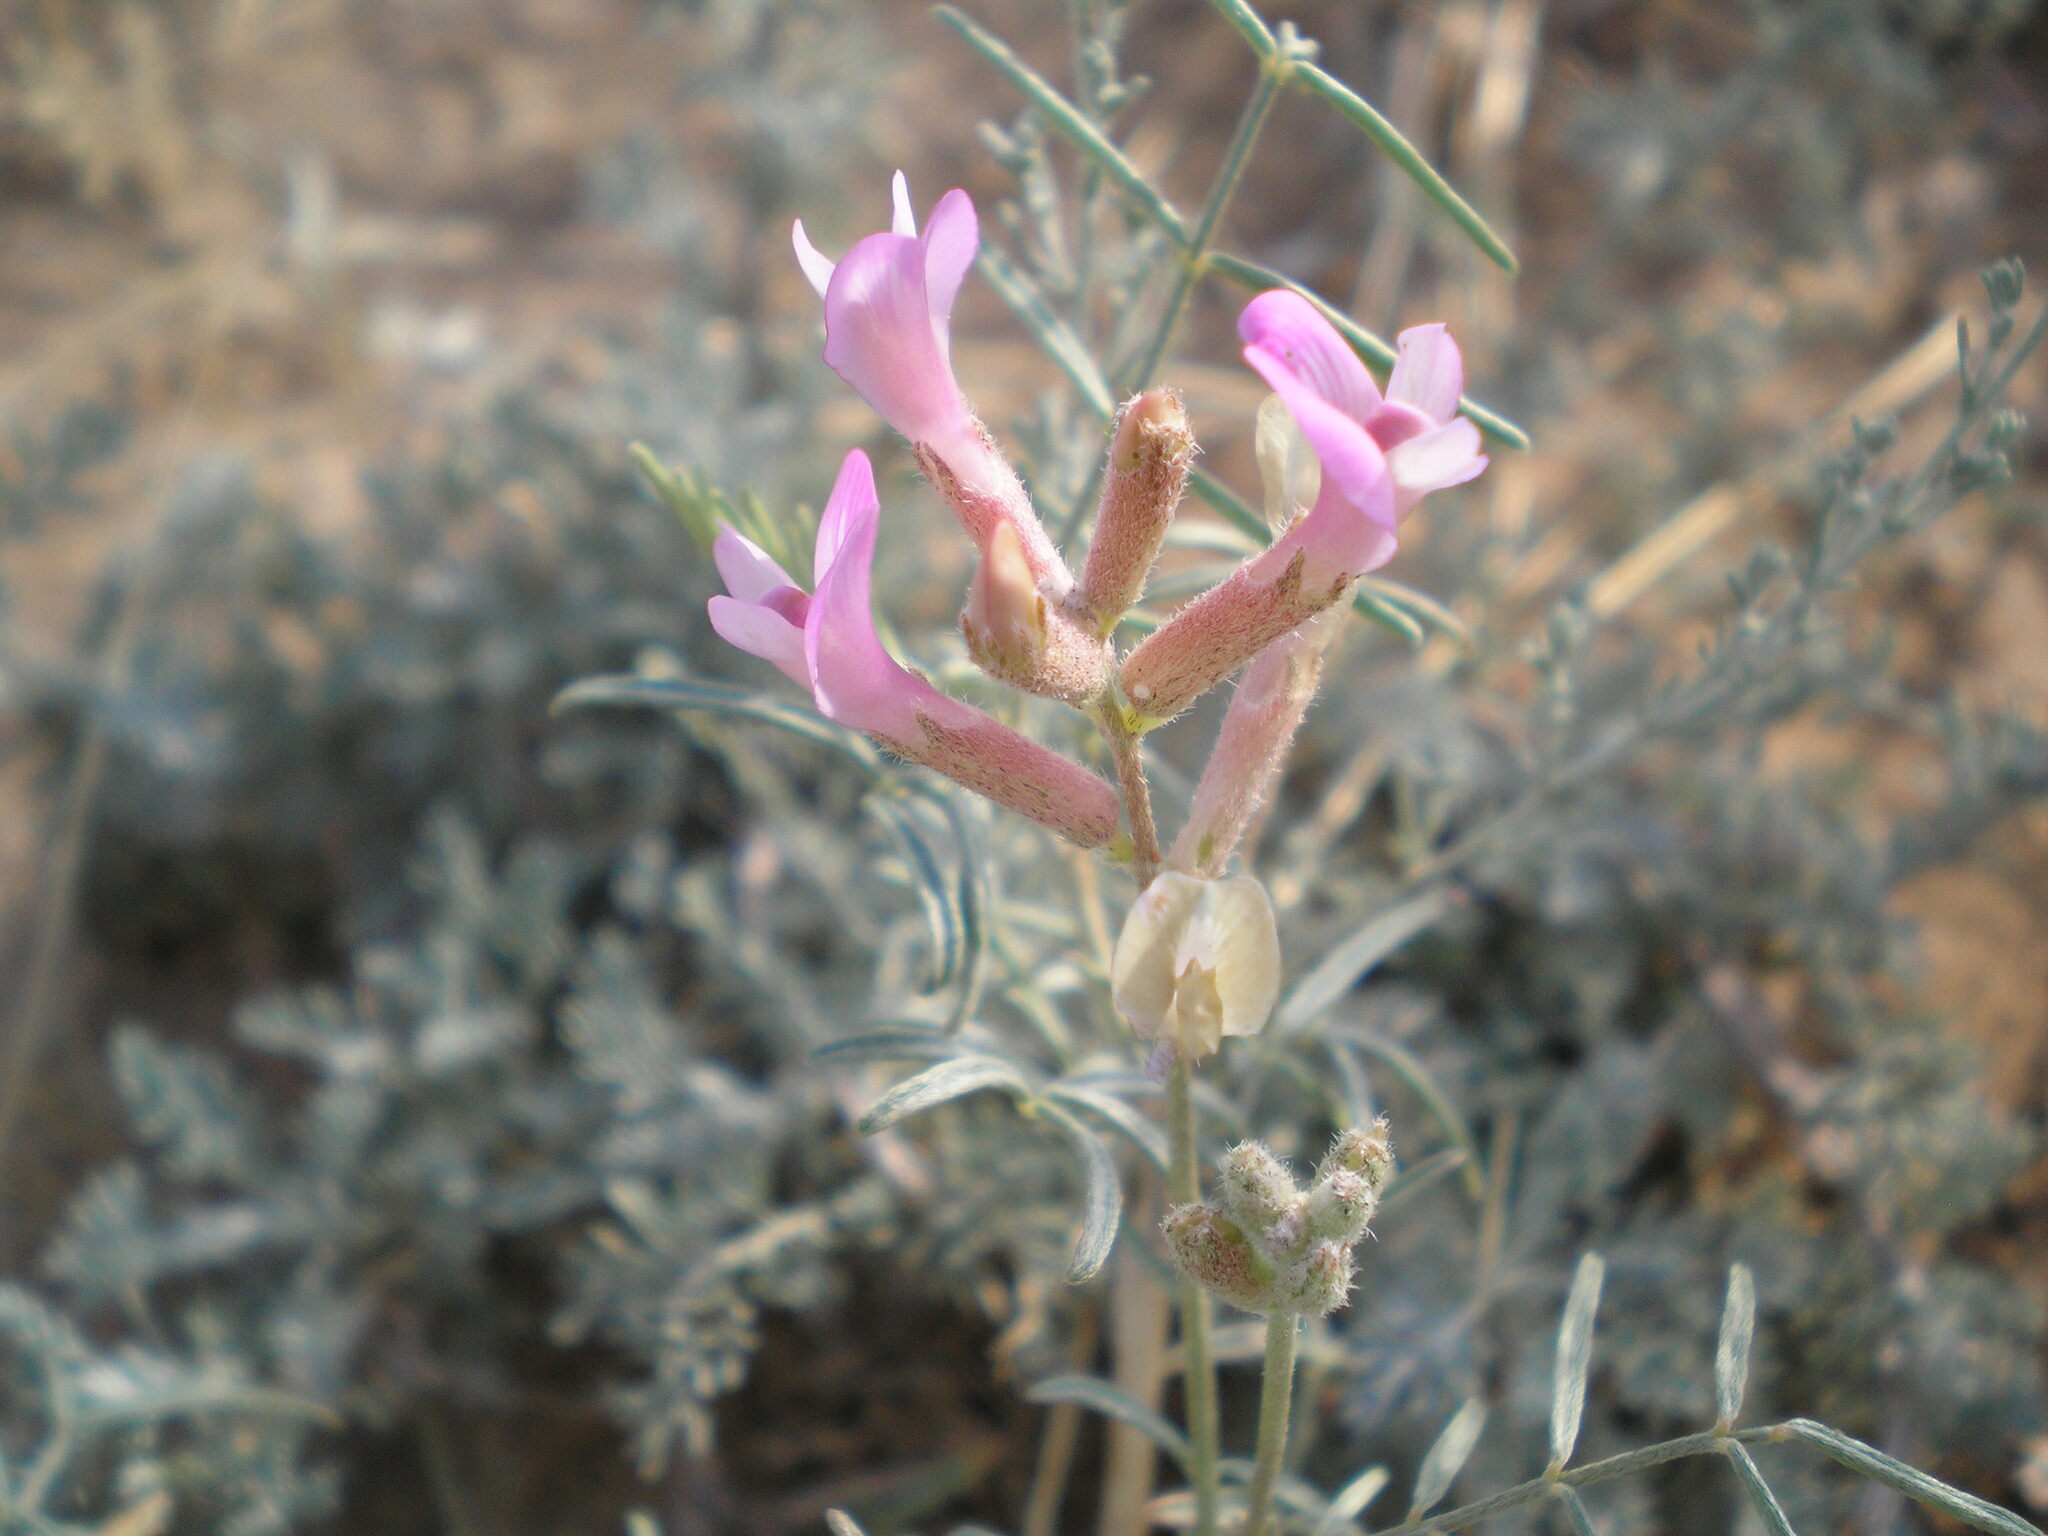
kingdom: Plantae
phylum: Tracheophyta
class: Magnoliopsida
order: Fabales
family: Fabaceae
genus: Astragalus
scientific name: Astragalus varius
